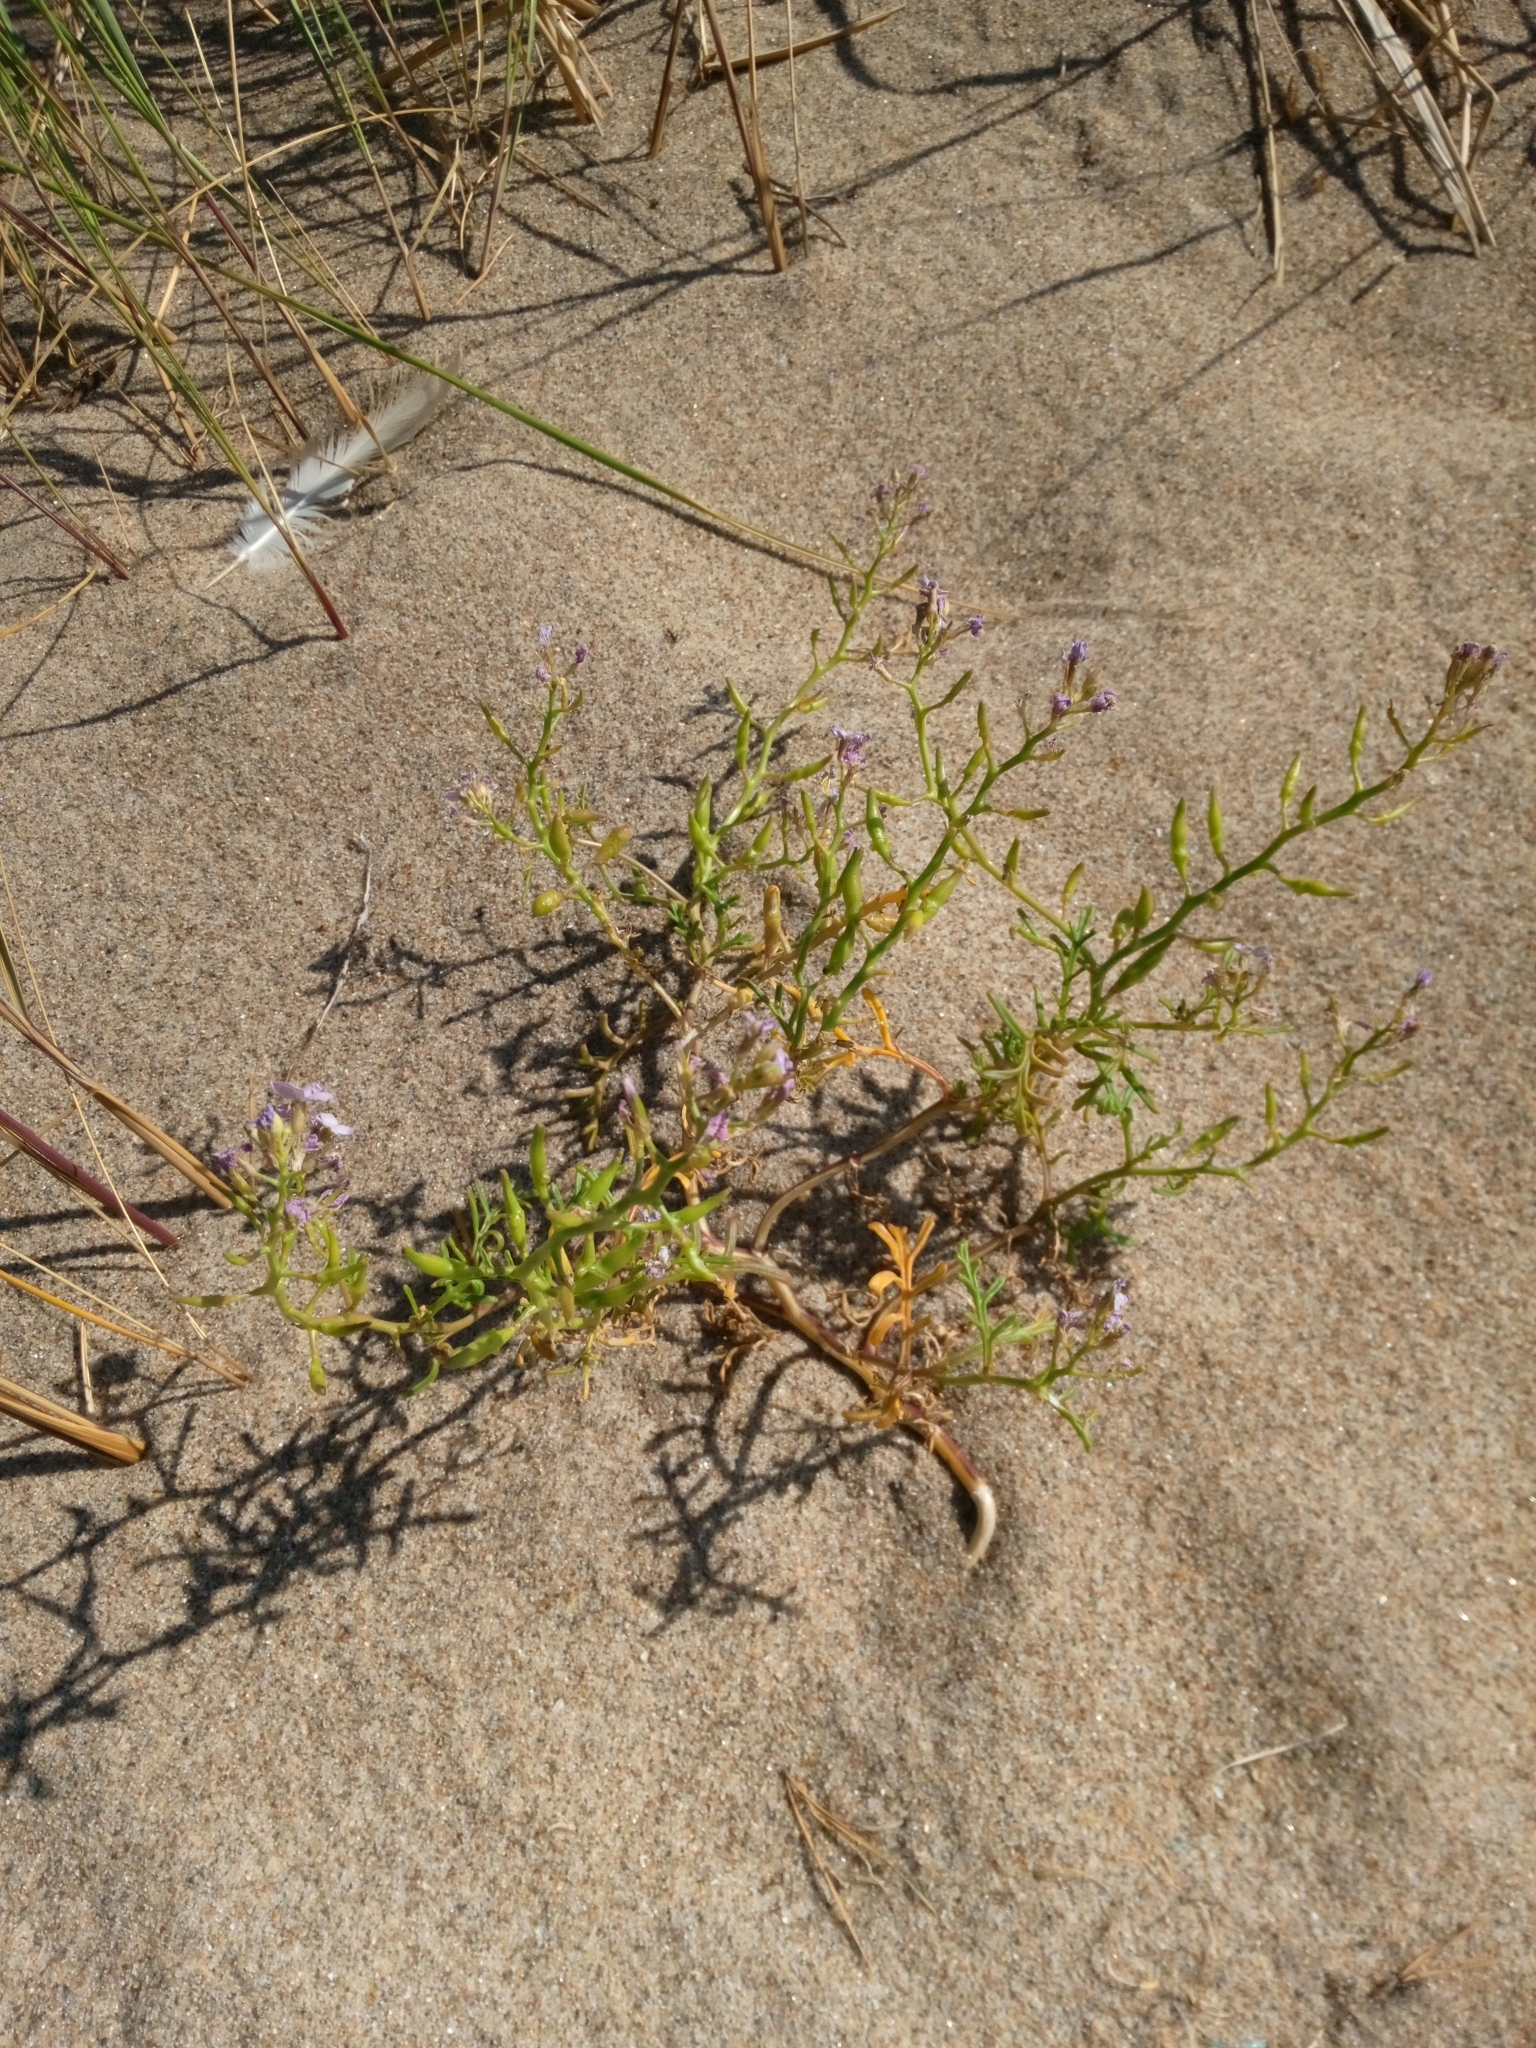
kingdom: Plantae
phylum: Tracheophyta
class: Magnoliopsida
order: Brassicales
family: Brassicaceae
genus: Cakile
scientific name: Cakile maritima
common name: Sea rocket
